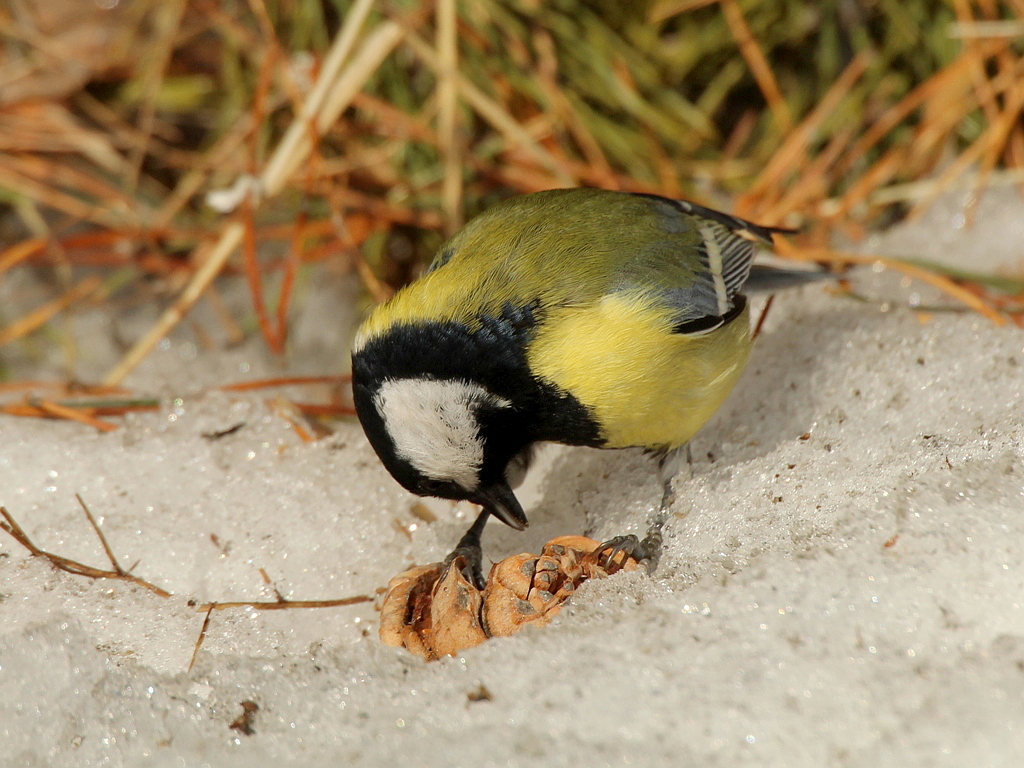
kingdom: Animalia
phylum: Chordata
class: Aves
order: Passeriformes
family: Paridae
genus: Parus
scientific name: Parus major
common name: Great tit
